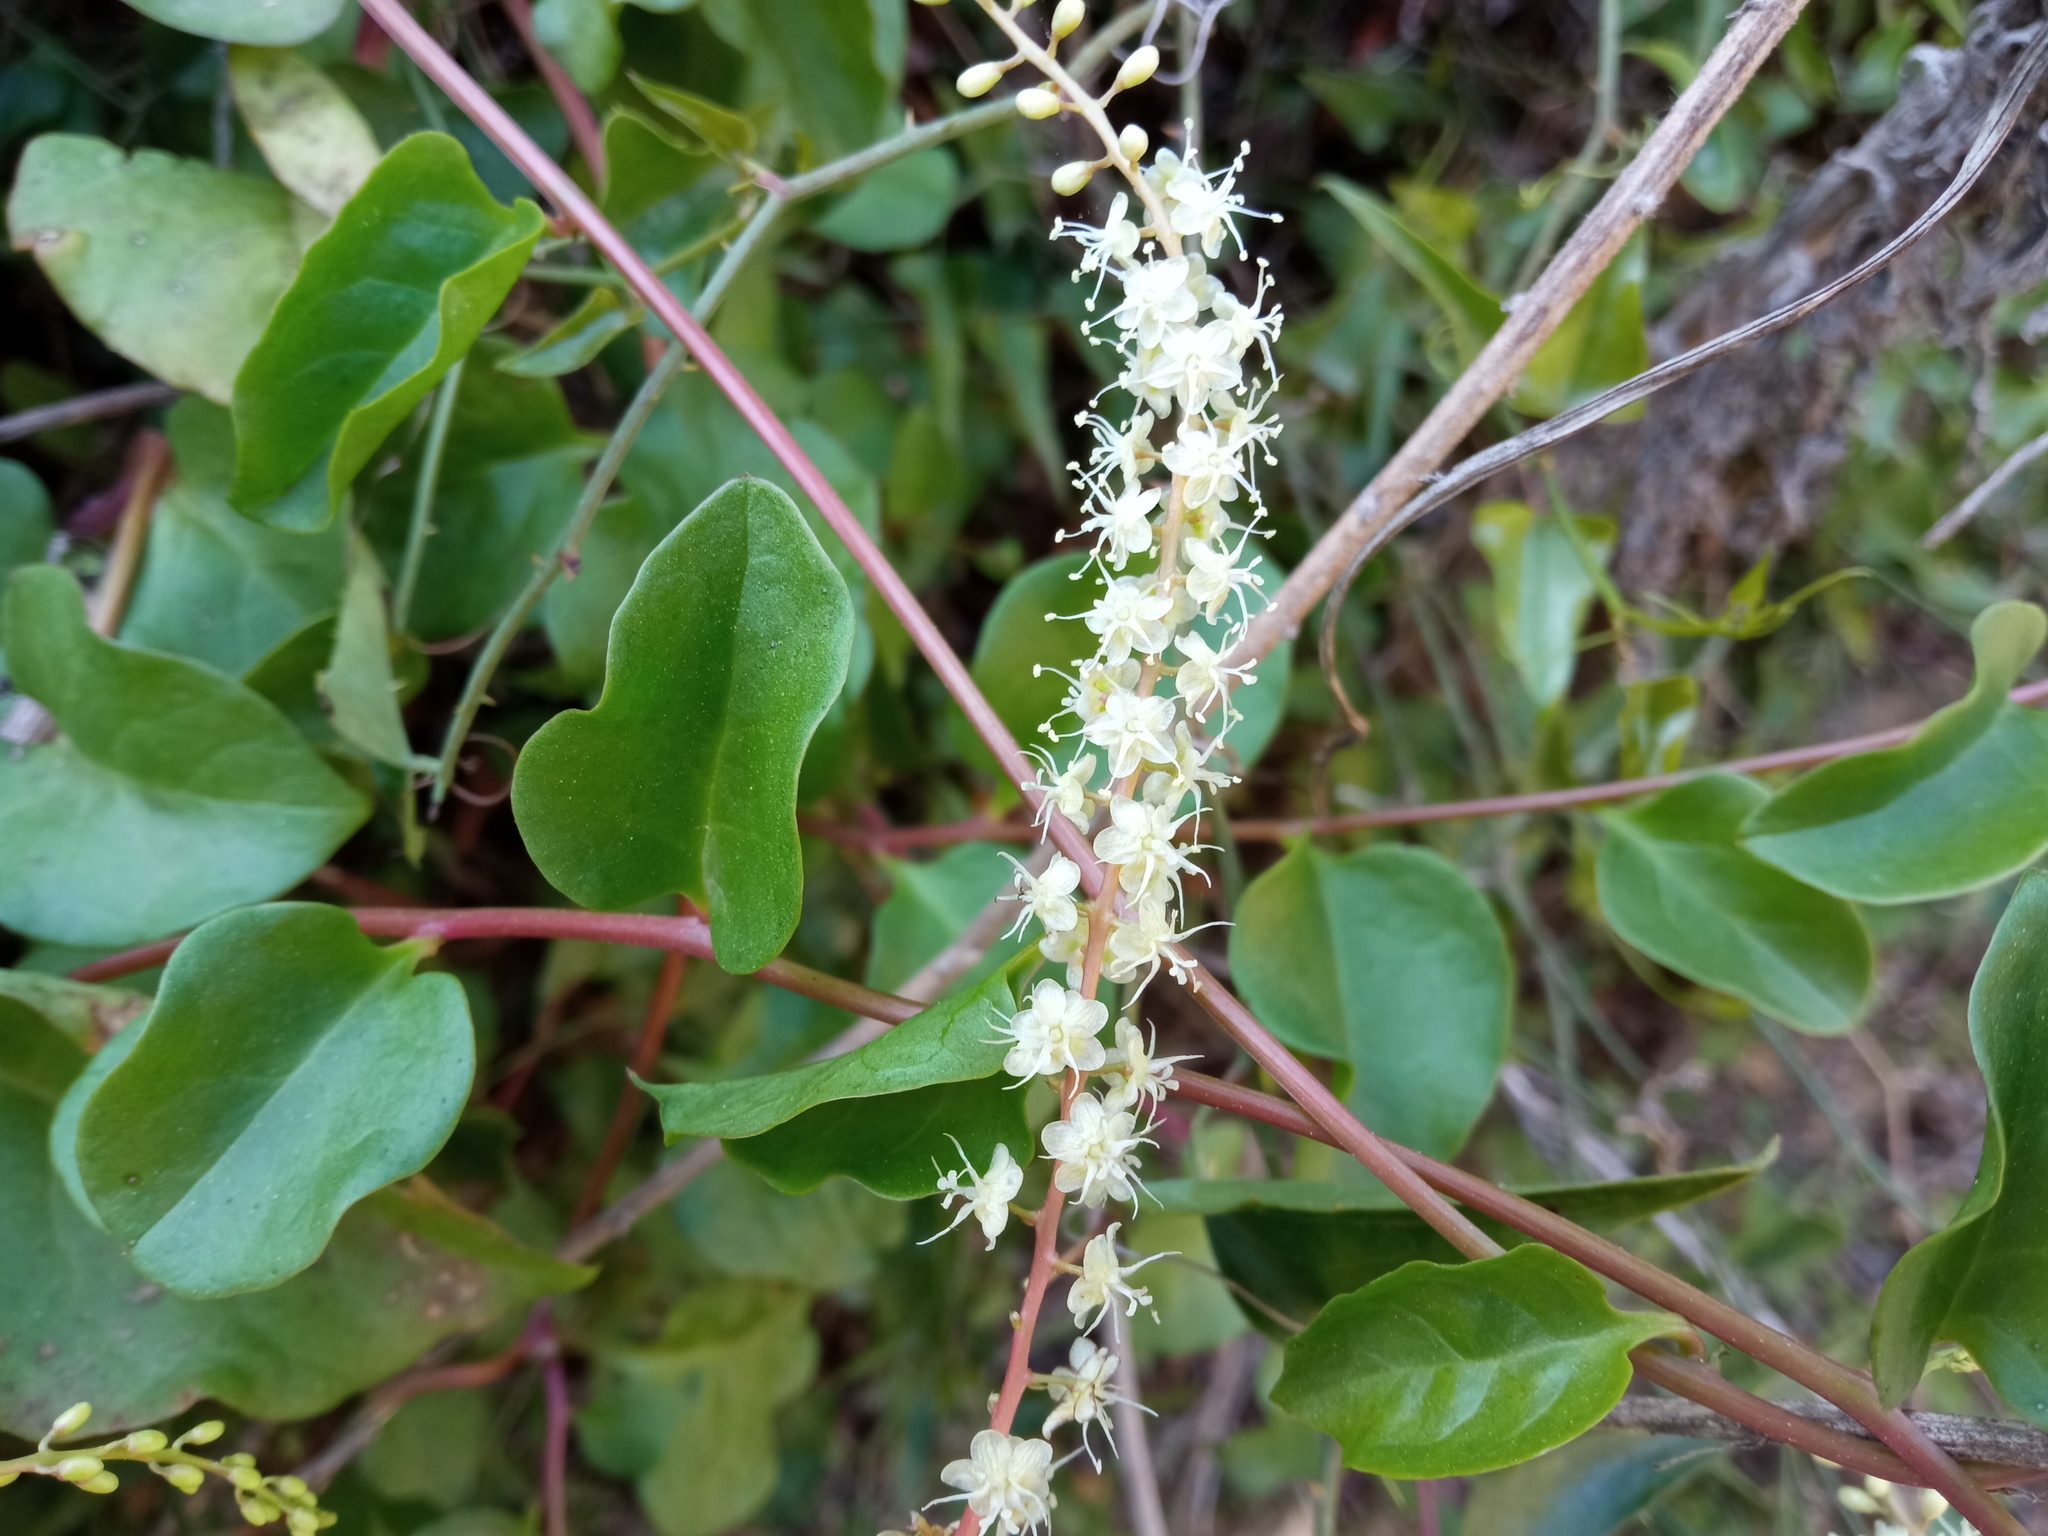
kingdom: Plantae
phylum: Tracheophyta
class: Magnoliopsida
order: Caryophyllales
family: Basellaceae
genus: Anredera
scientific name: Anredera cordifolia
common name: Heartleaf madeiravine
